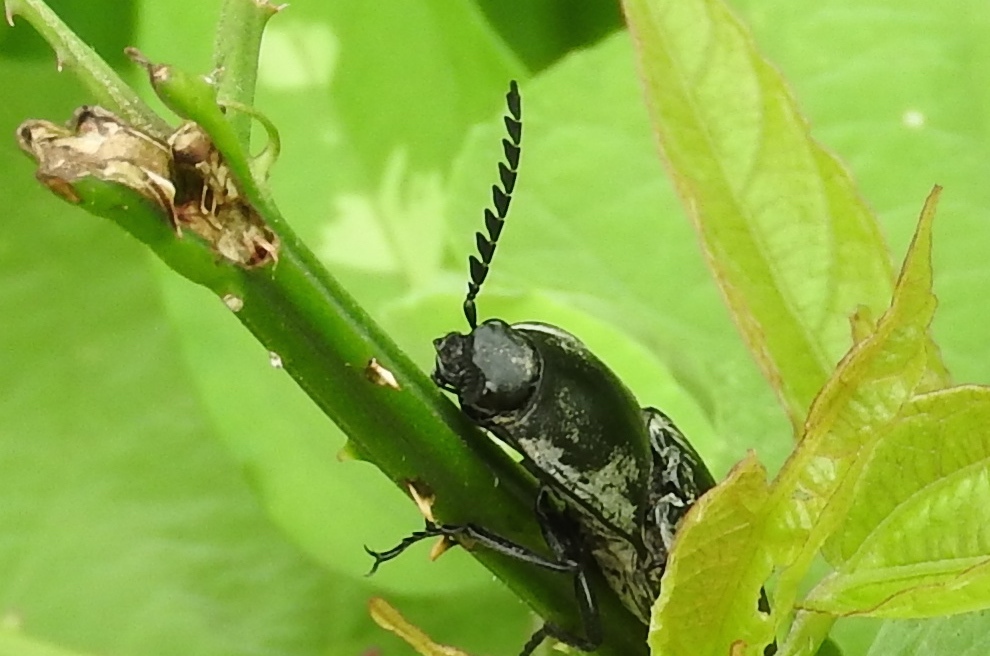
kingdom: Animalia
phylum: Arthropoda
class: Insecta
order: Coleoptera
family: Elateridae
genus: Chalcolepidius
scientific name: Chalcolepidius
